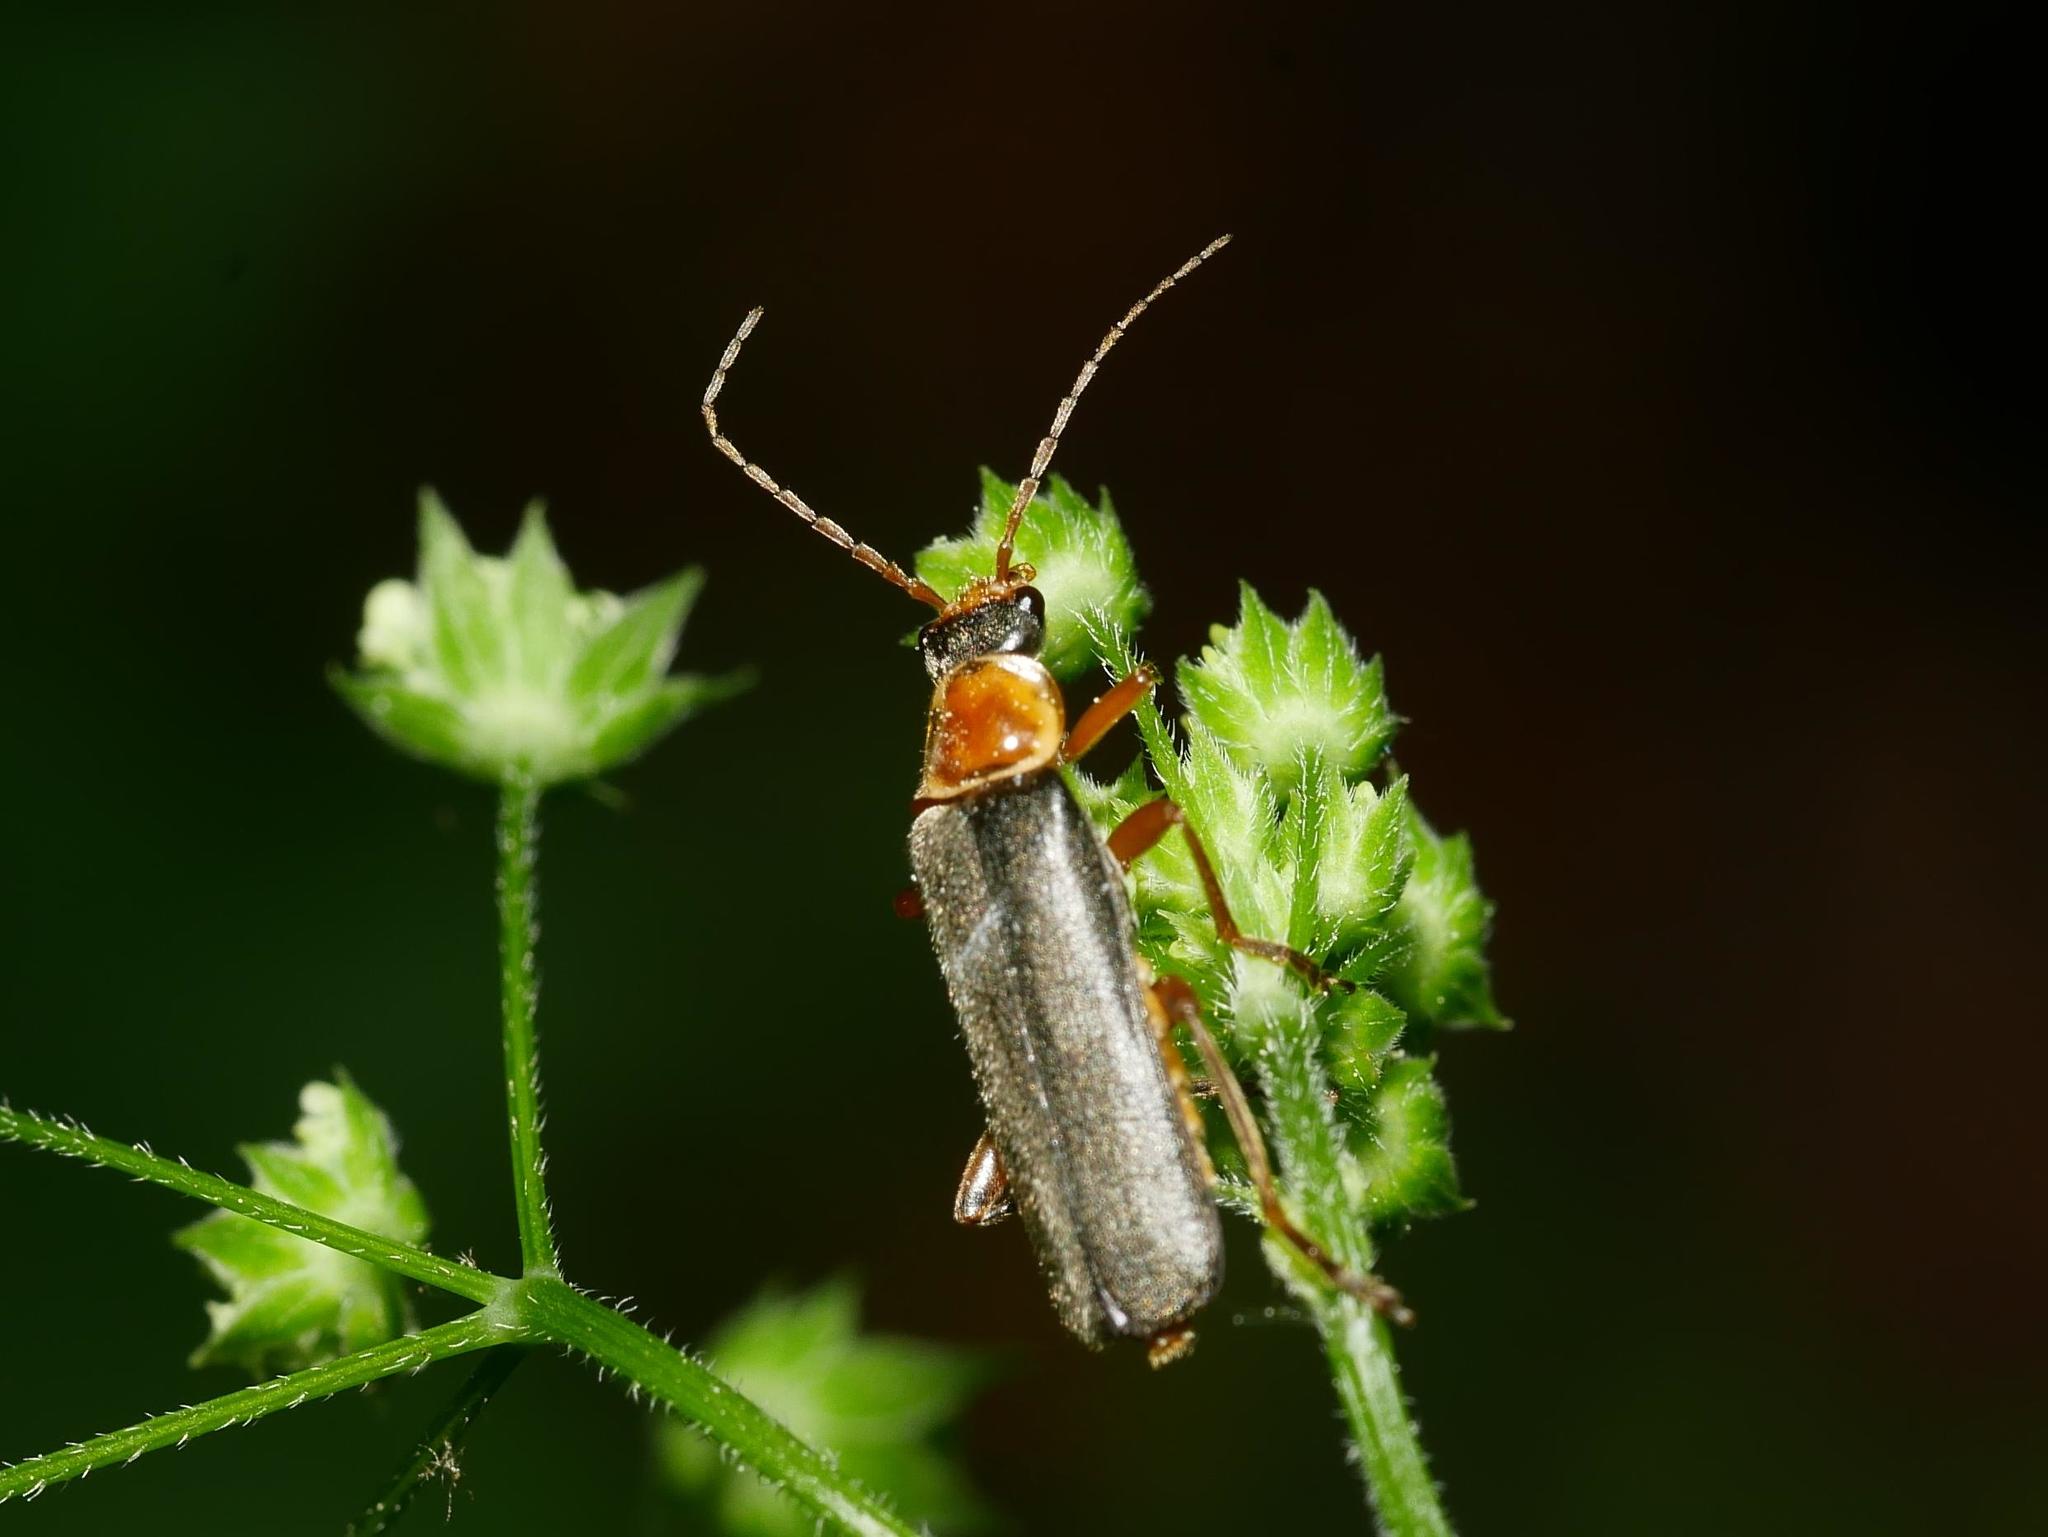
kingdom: Animalia
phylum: Arthropoda
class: Insecta
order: Coleoptera
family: Cantharidae
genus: Cantharis
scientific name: Cantharis nigricans
